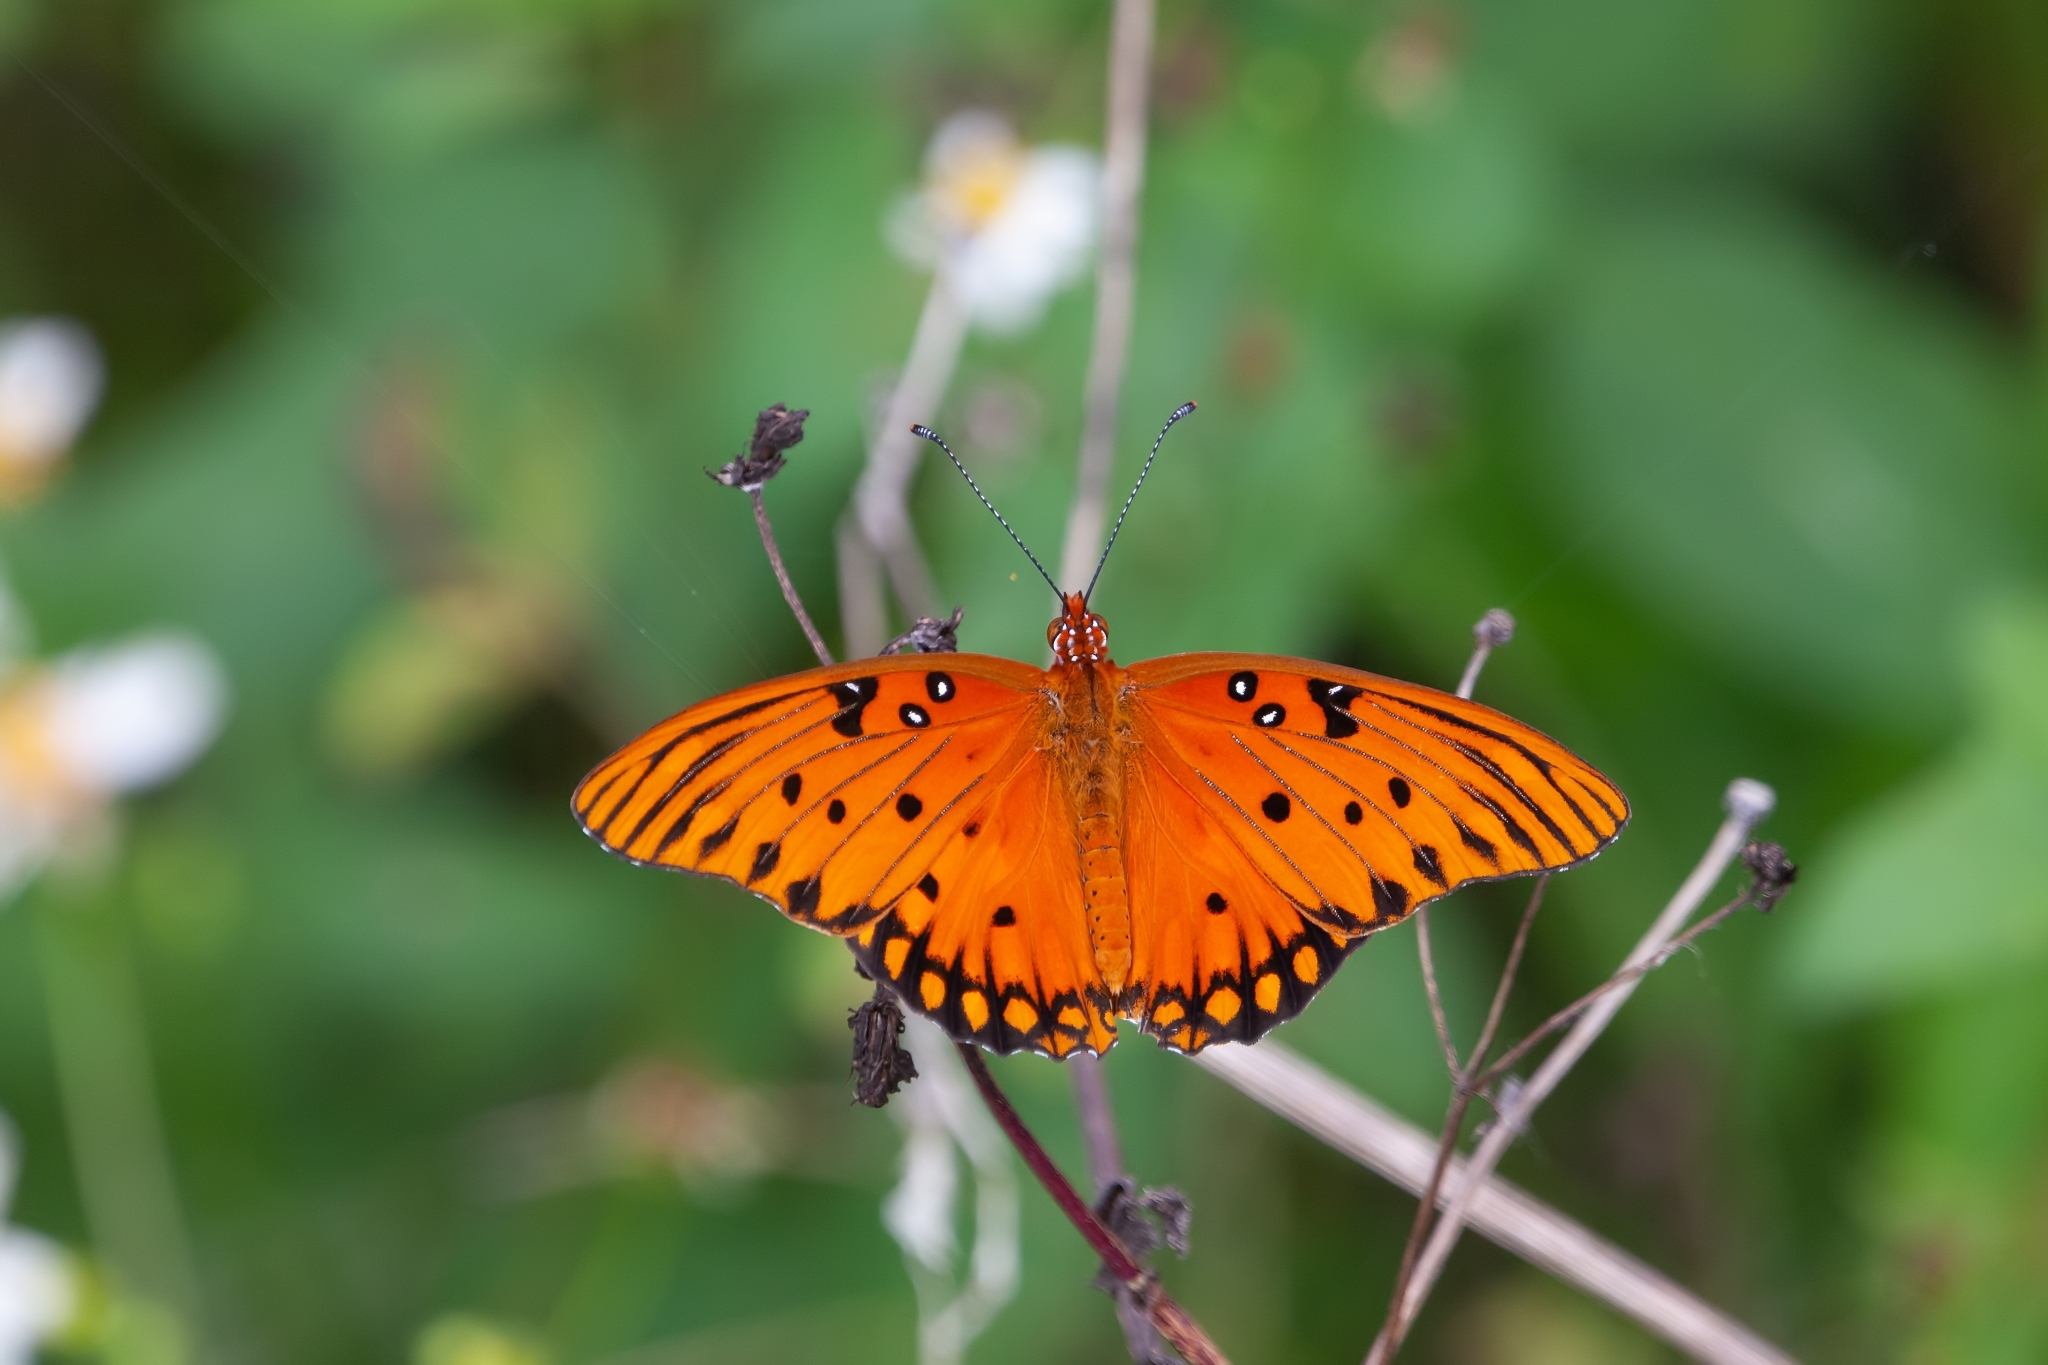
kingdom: Animalia
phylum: Arthropoda
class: Insecta
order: Lepidoptera
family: Nymphalidae
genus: Dione
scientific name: Dione vanillae
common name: Gulf fritillary
